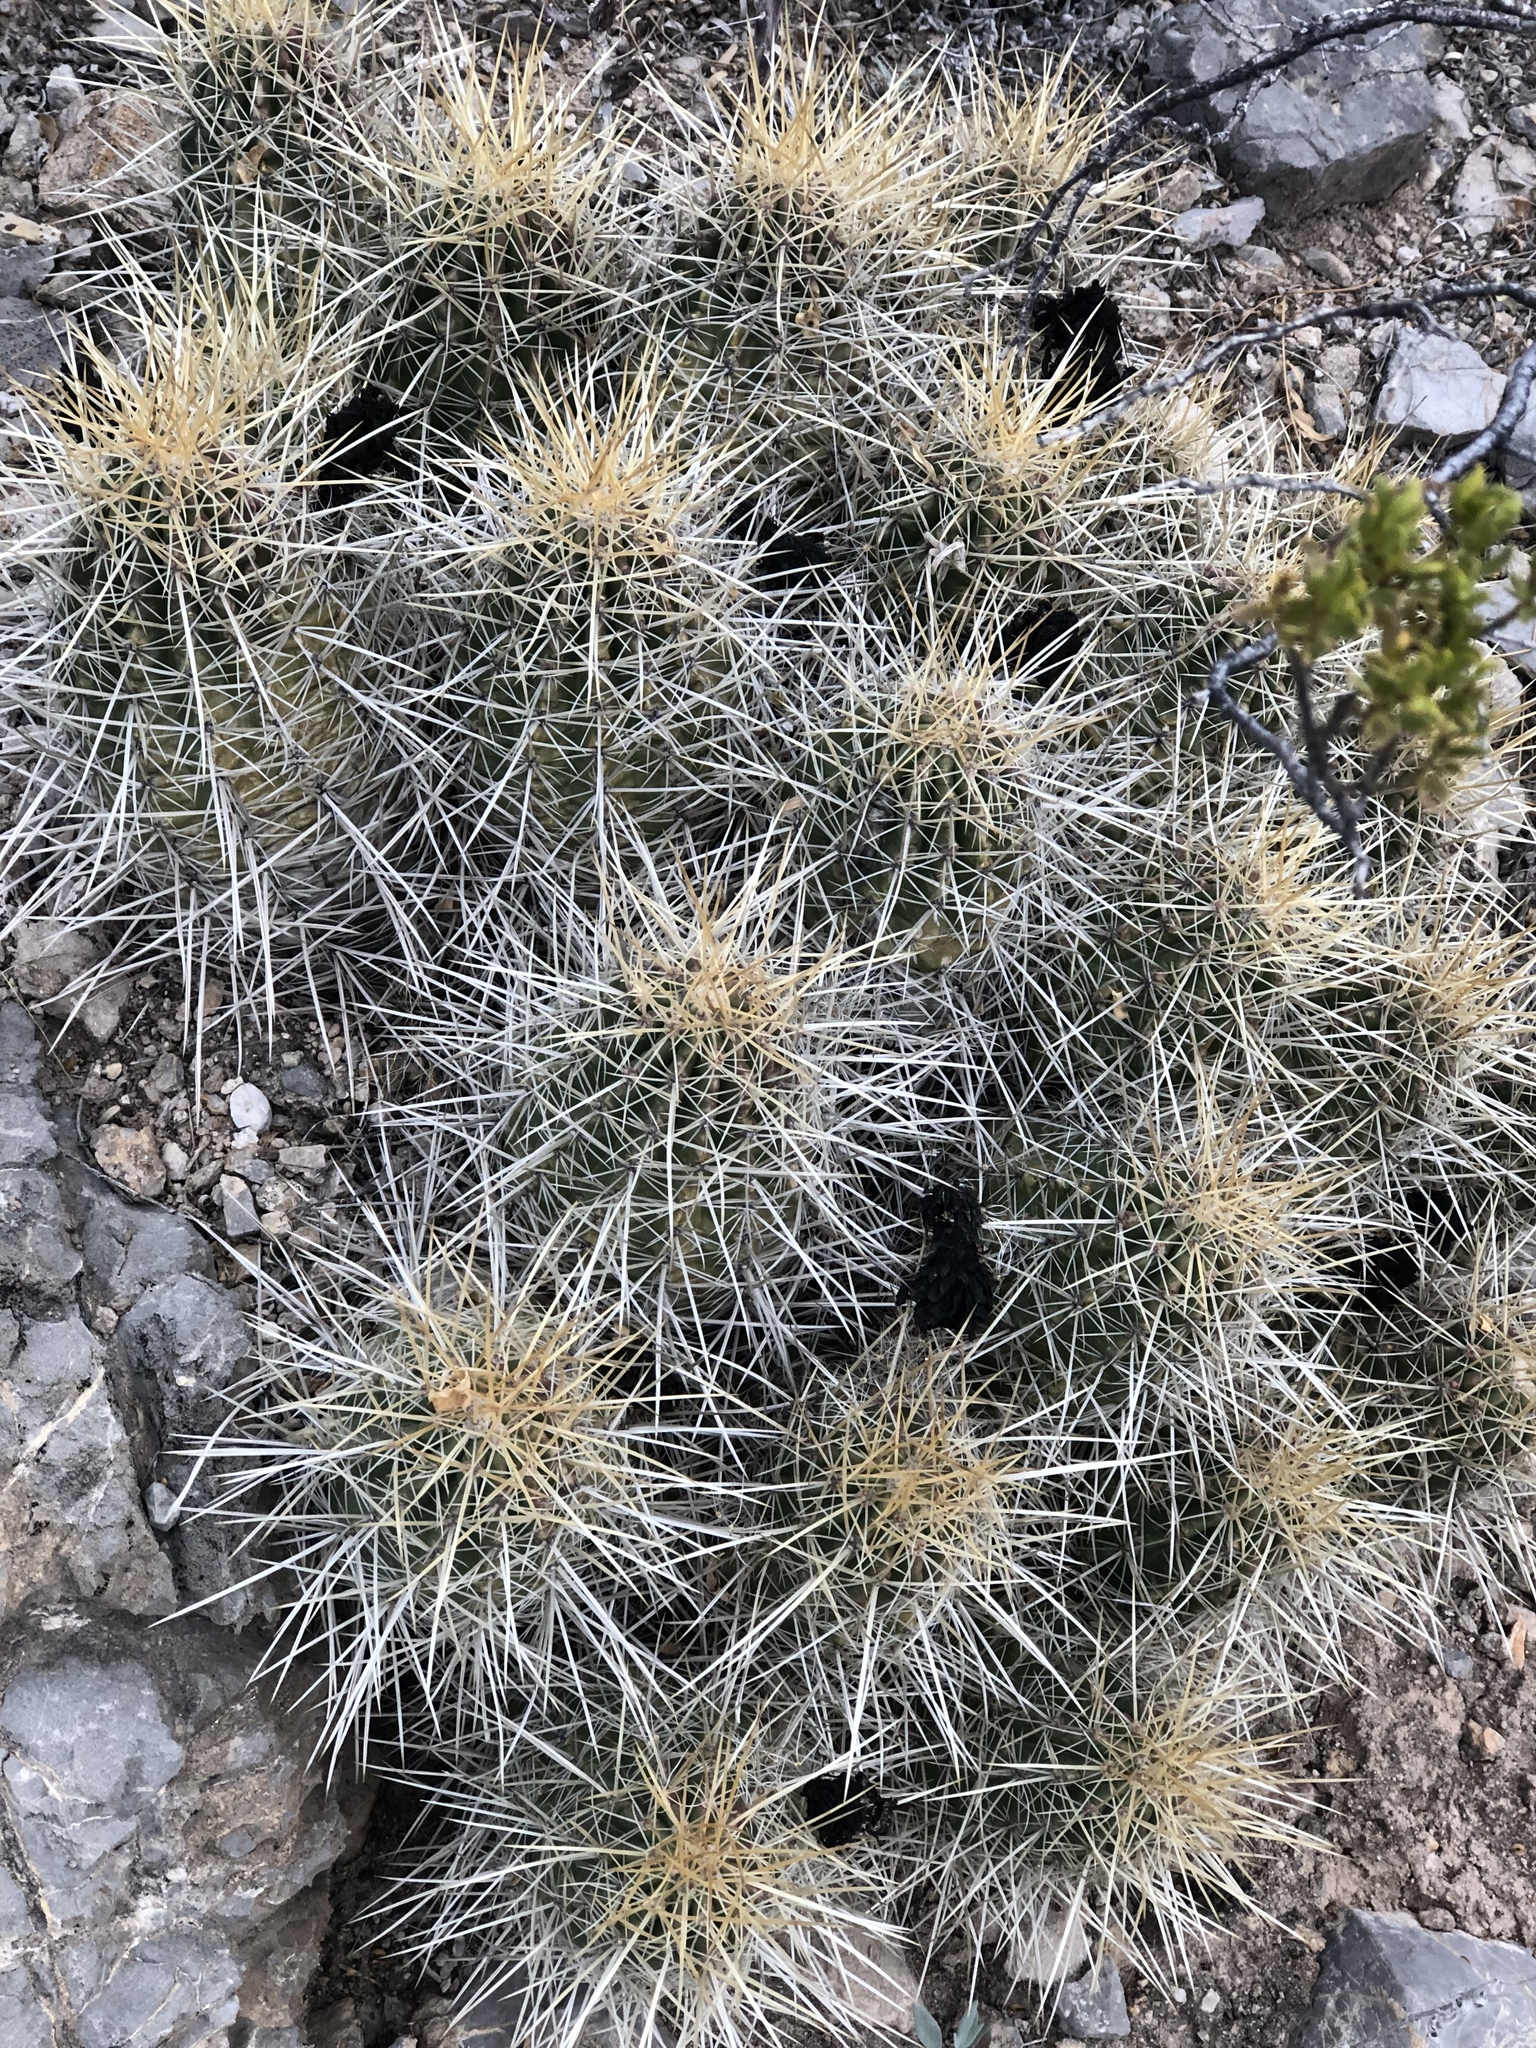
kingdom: Plantae
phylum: Tracheophyta
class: Magnoliopsida
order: Caryophyllales
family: Cactaceae
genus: Echinocereus
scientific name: Echinocereus stramineus
